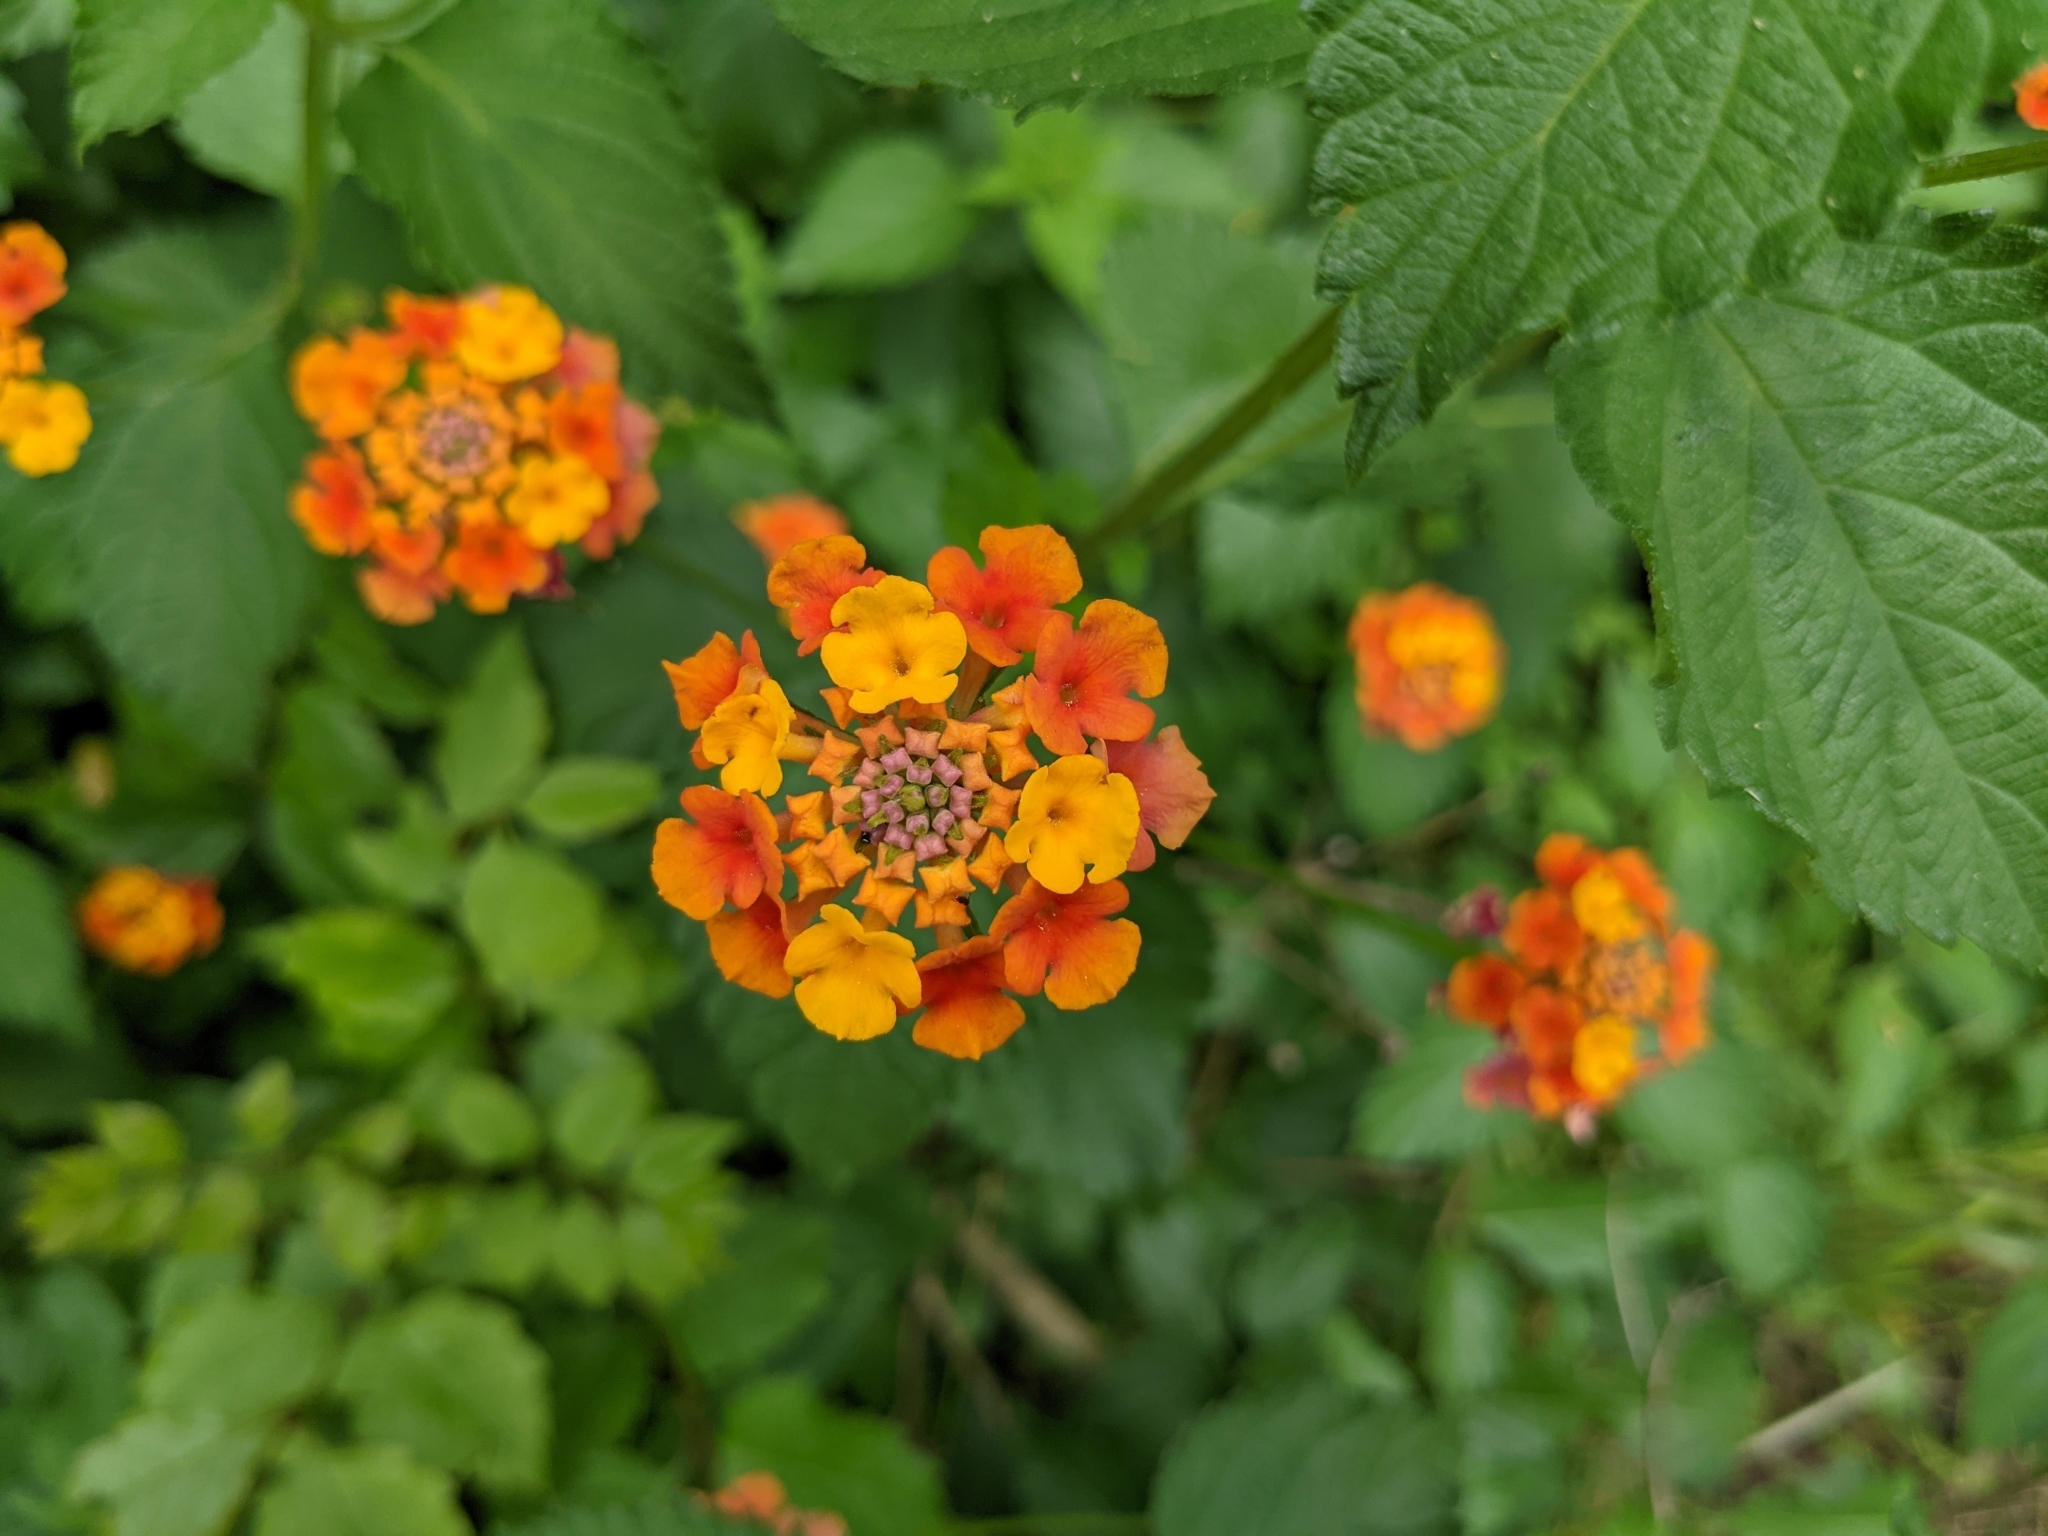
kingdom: Plantae
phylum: Tracheophyta
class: Magnoliopsida
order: Lamiales
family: Verbenaceae
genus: Lantana
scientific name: Lantana camara
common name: Lantana
